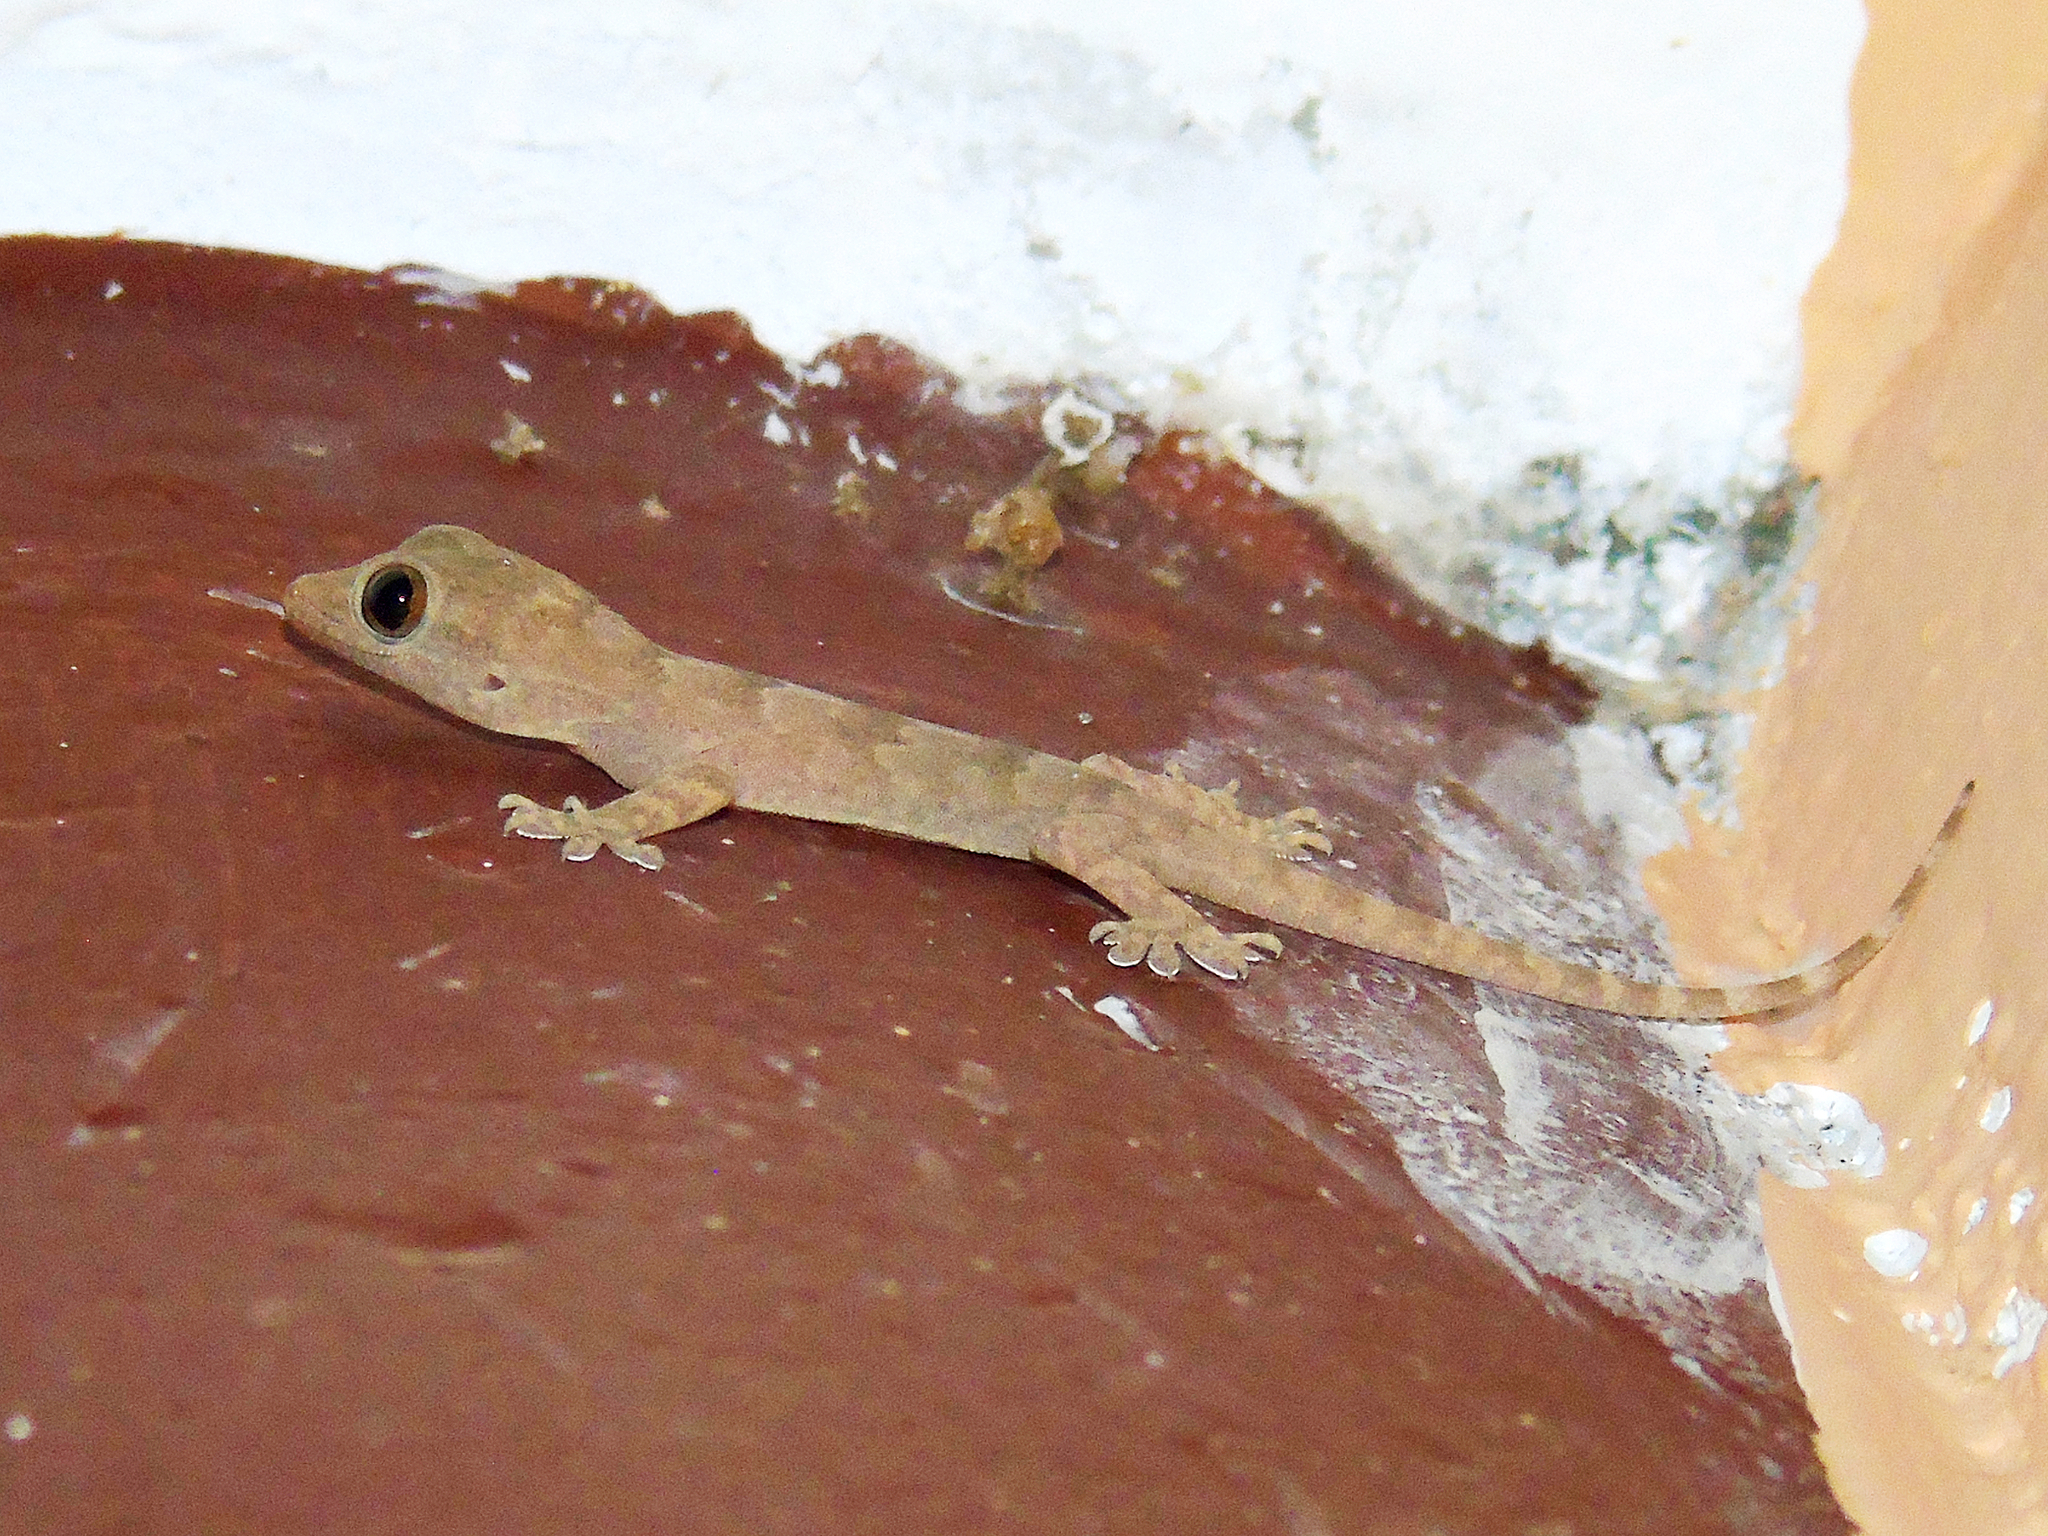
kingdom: Animalia
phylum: Chordata
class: Squamata
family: Gekkonidae
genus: Hemidactylus
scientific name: Hemidactylus flaviviridis
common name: Northern house gecko
